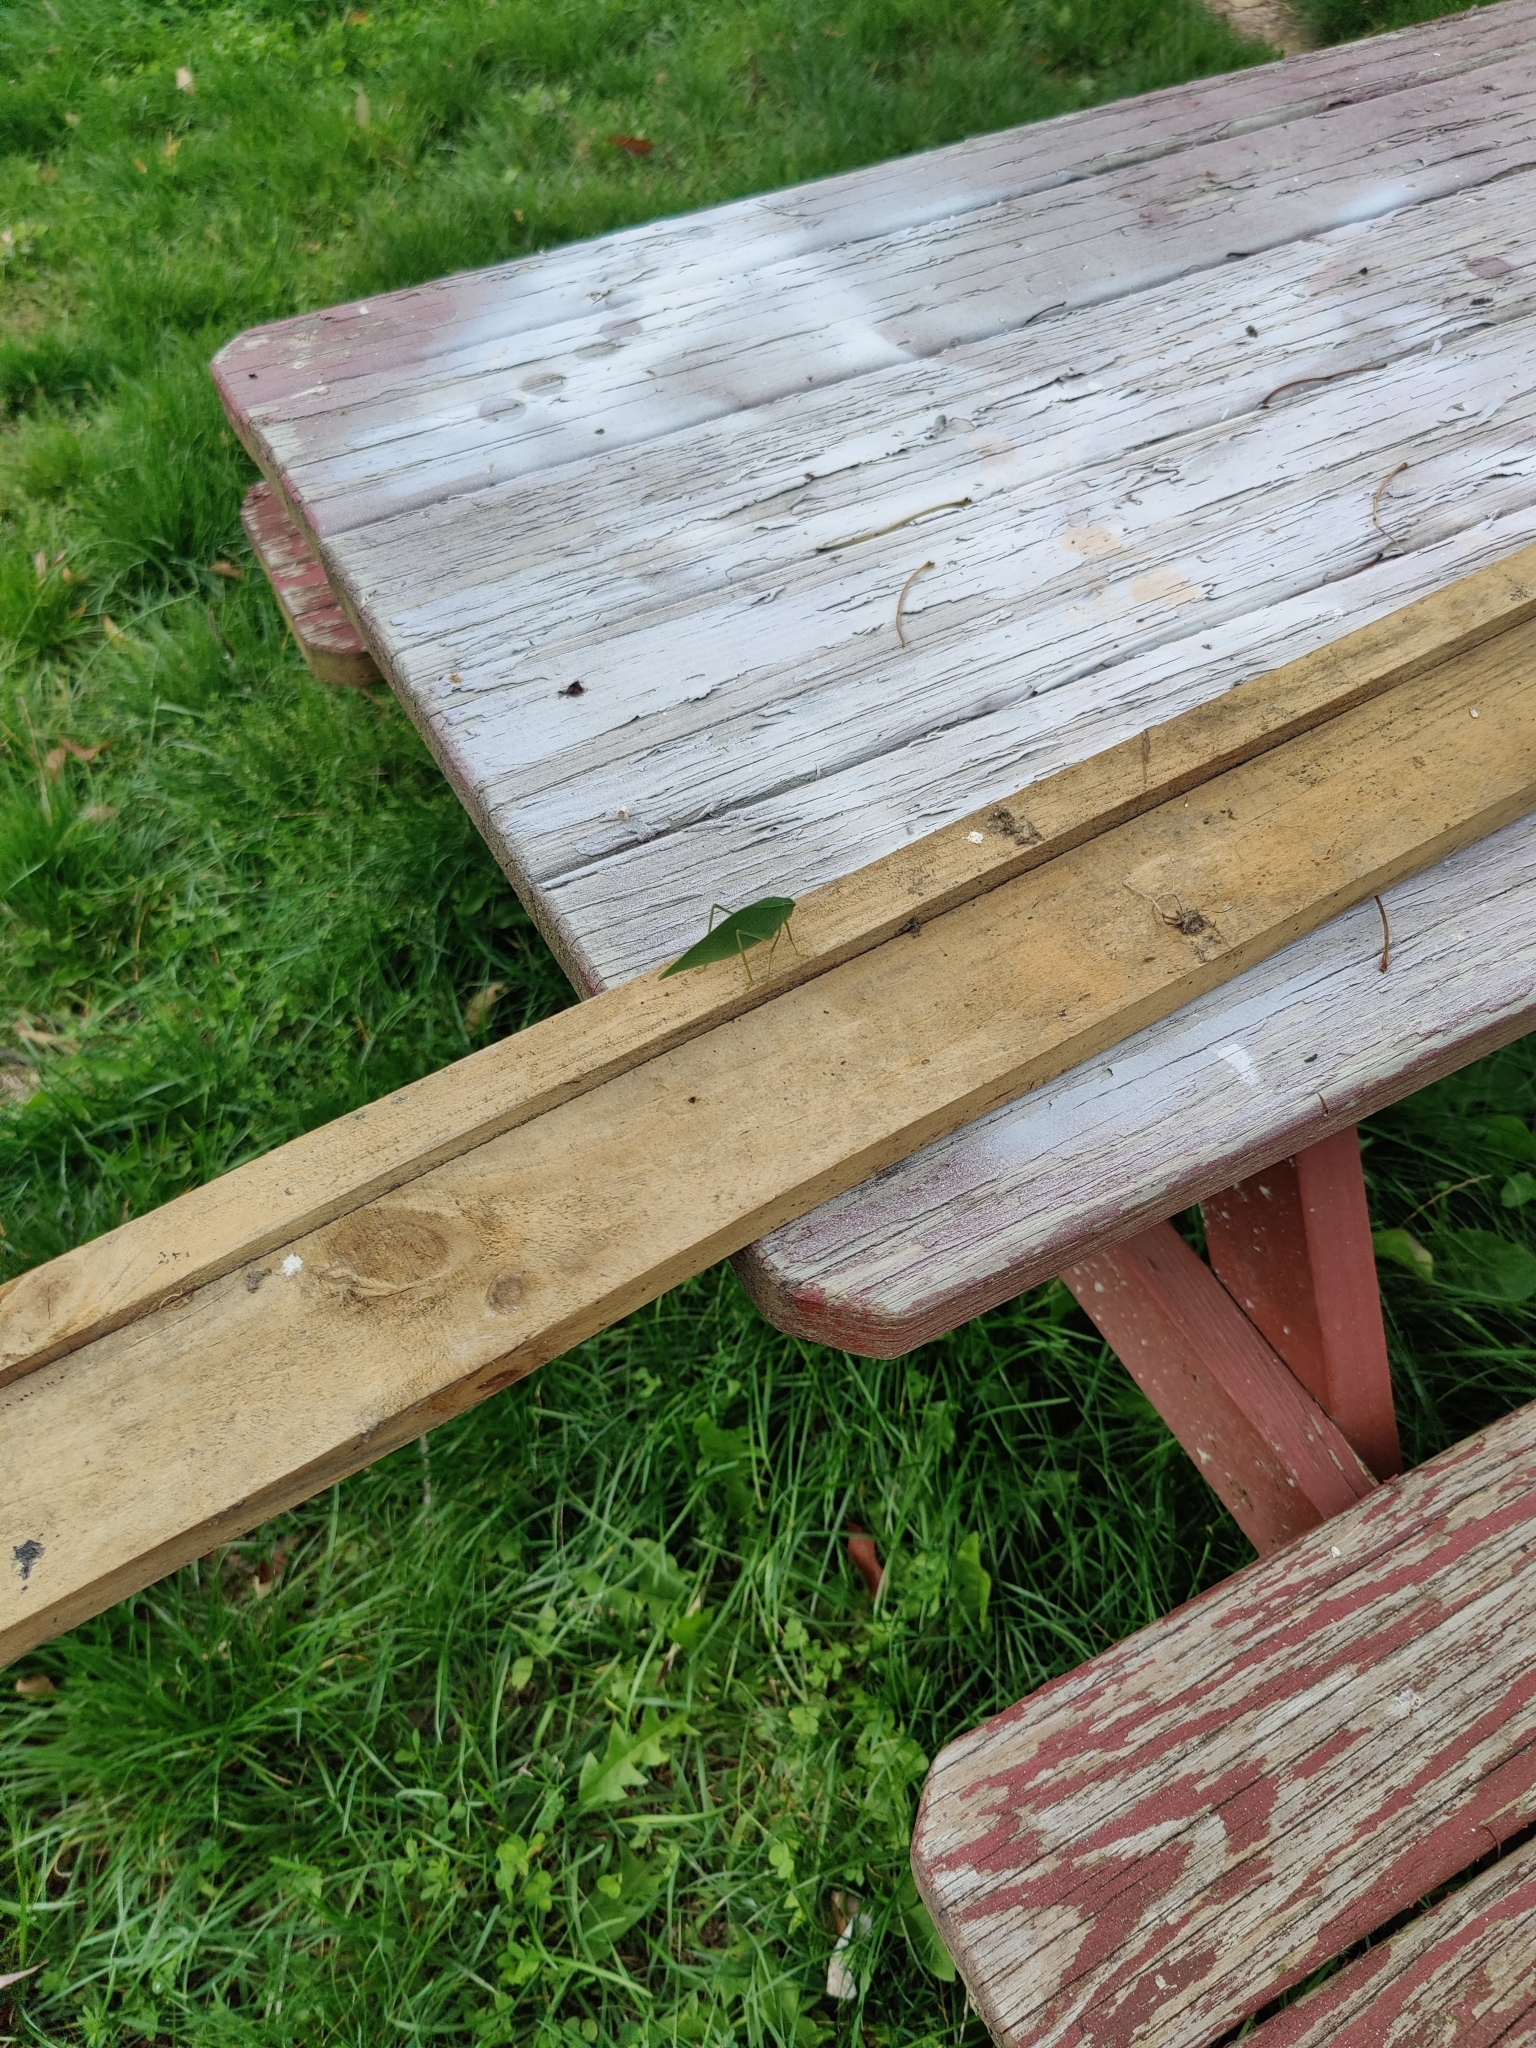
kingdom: Animalia
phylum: Arthropoda
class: Insecta
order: Orthoptera
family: Tettigoniidae
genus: Microcentrum
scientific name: Microcentrum rhombifolium
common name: Broad-winged katydid
